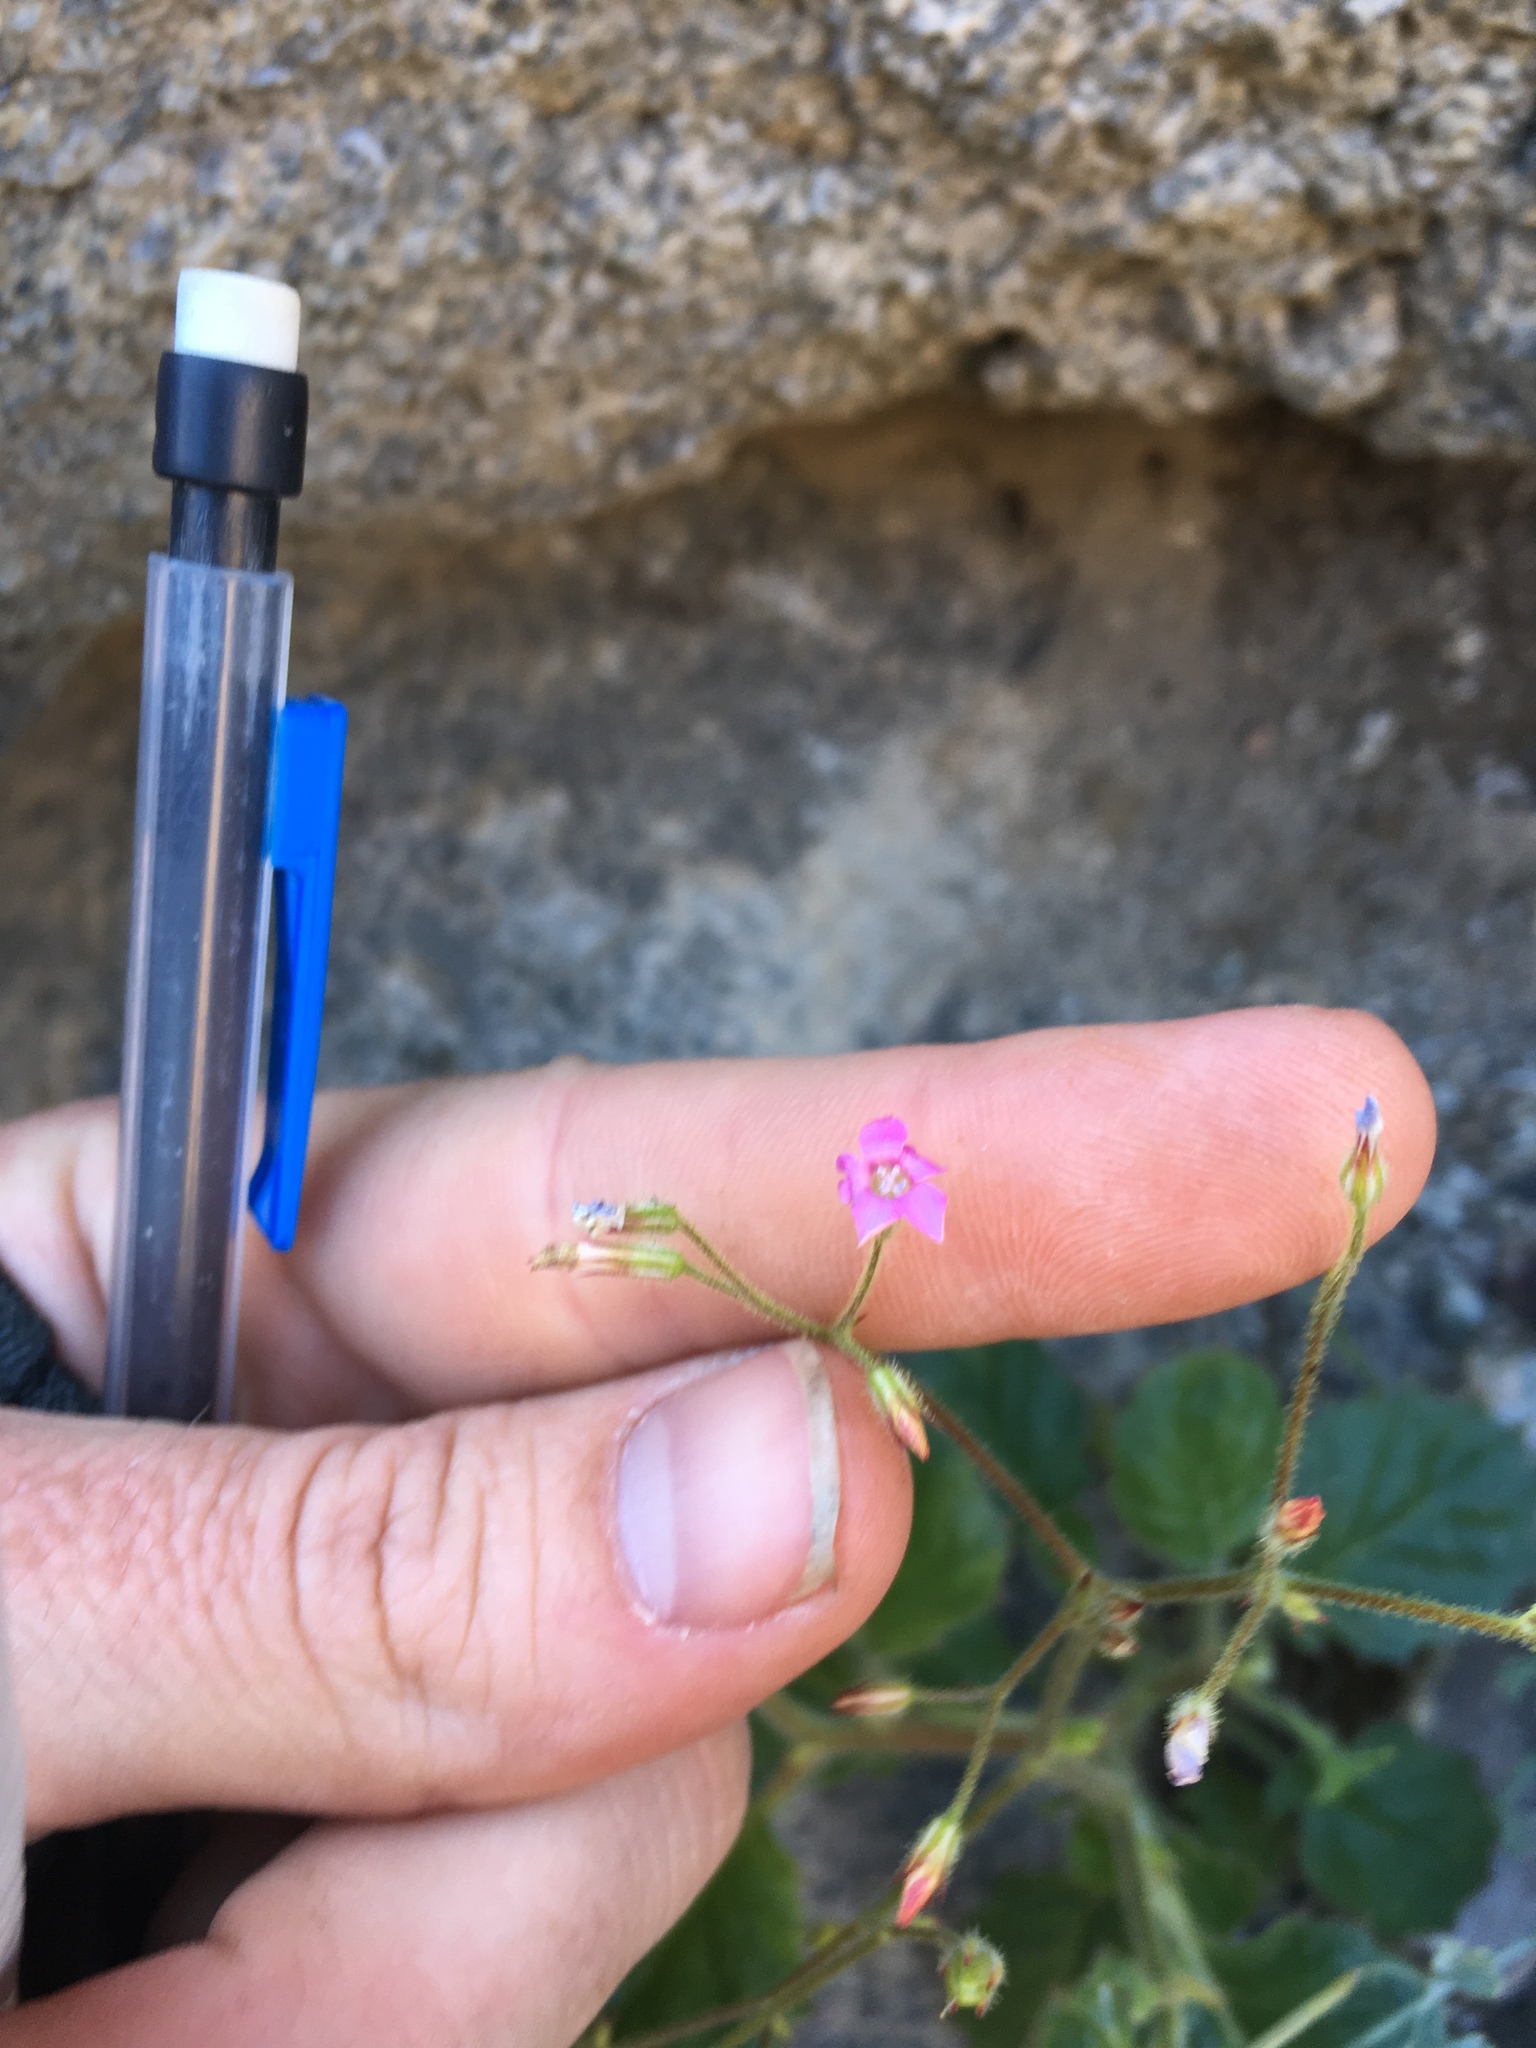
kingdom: Plantae
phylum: Tracheophyta
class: Magnoliopsida
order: Ericales
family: Polemoniaceae
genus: Aliciella
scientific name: Aliciella latifolia
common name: Broad-leaf gilia
